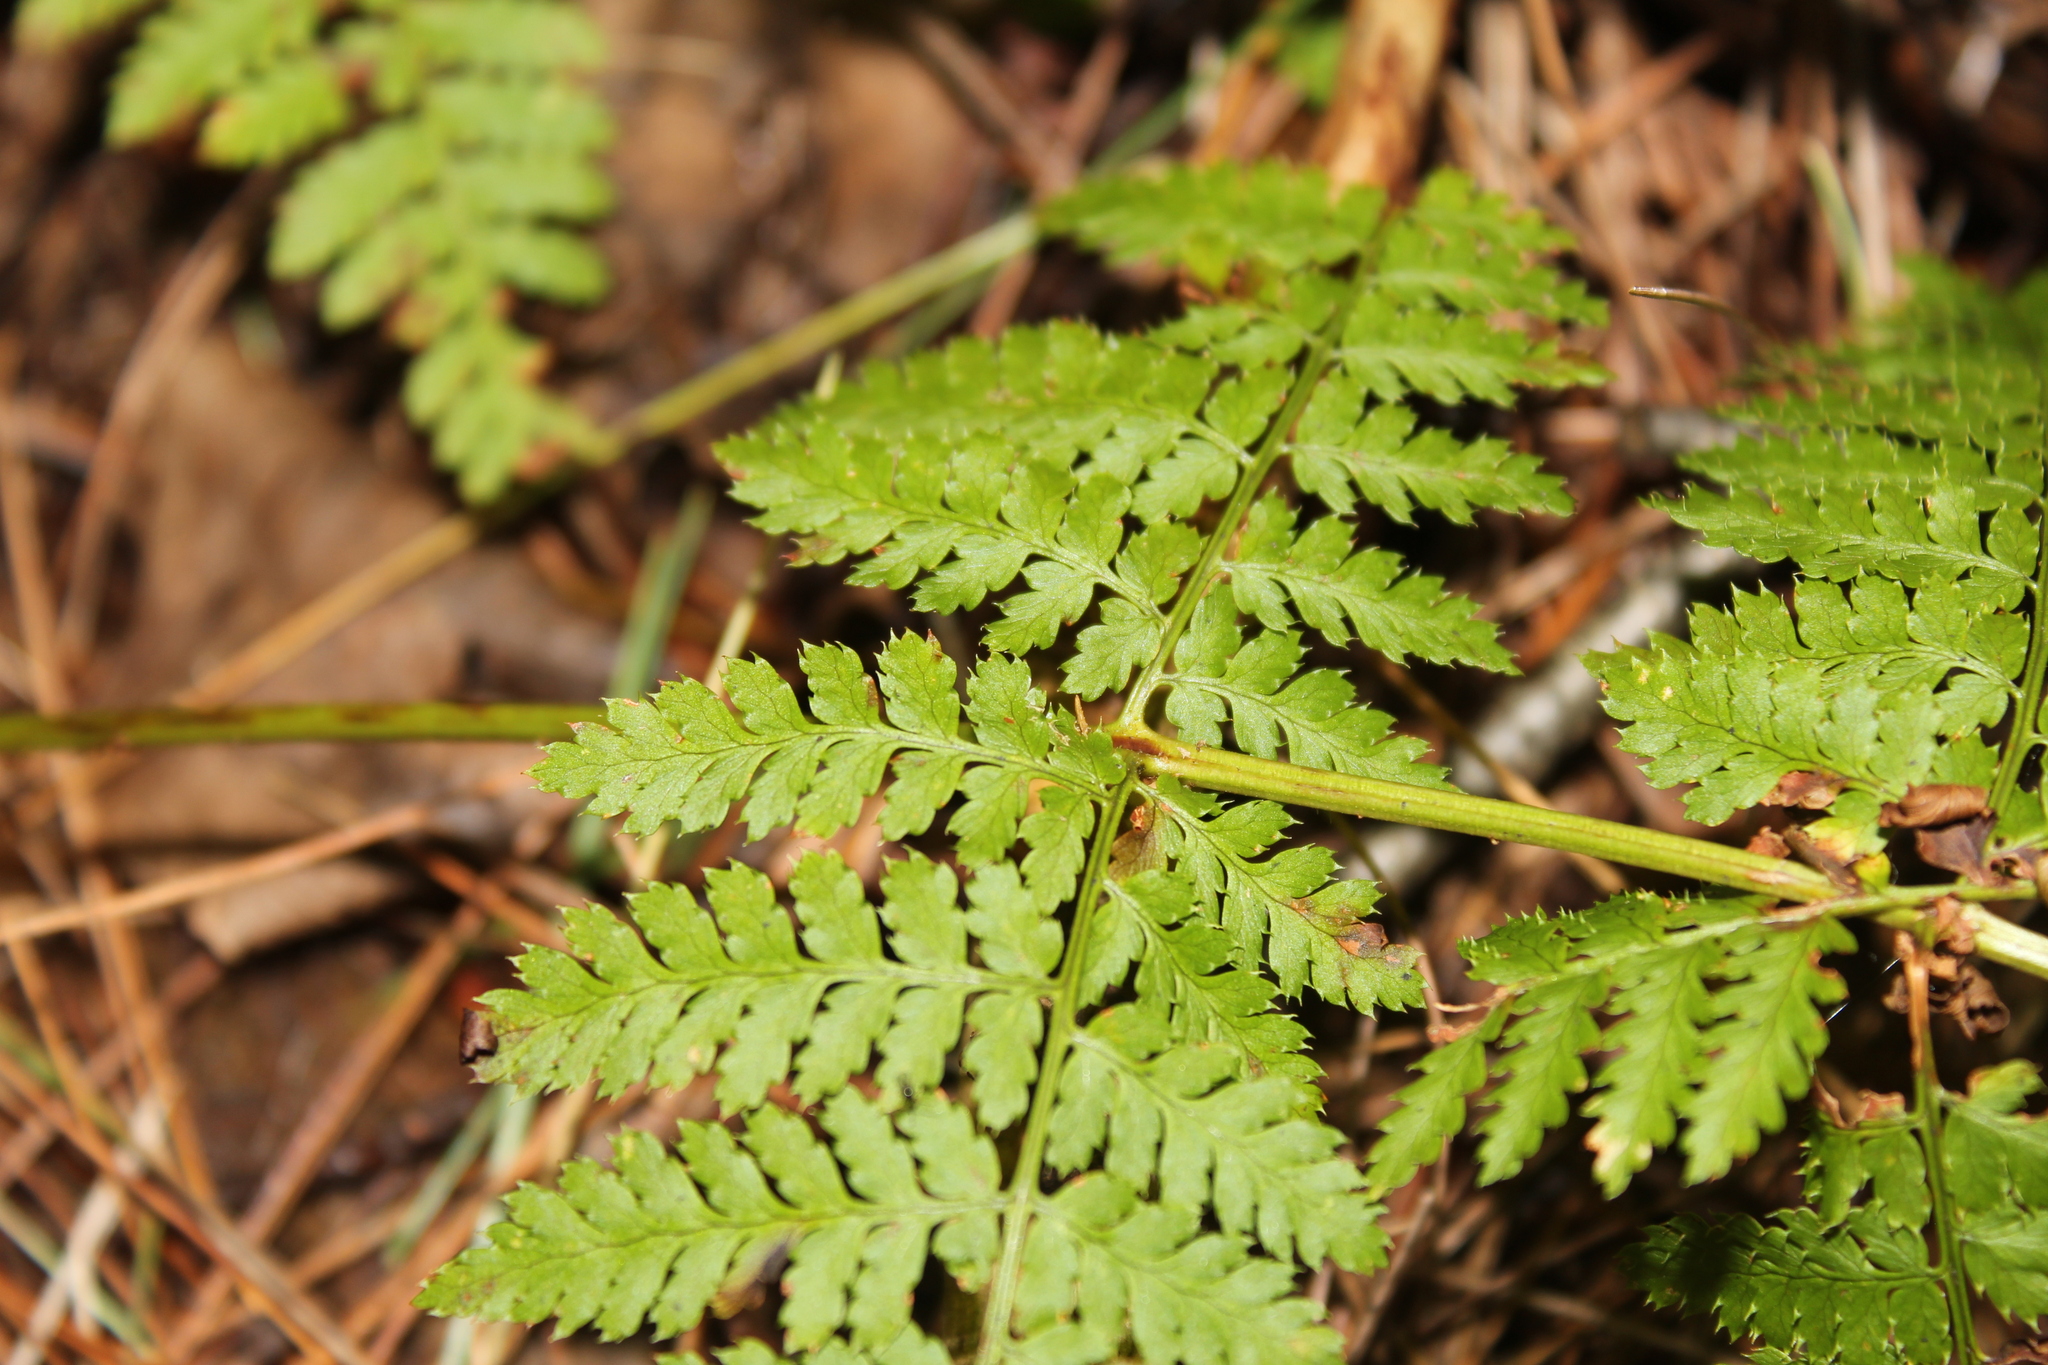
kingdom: Plantae
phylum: Tracheophyta
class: Polypodiopsida
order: Polypodiales
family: Dryopteridaceae
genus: Dryopteris
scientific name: Dryopteris intermedia
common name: Evergreen wood fern
